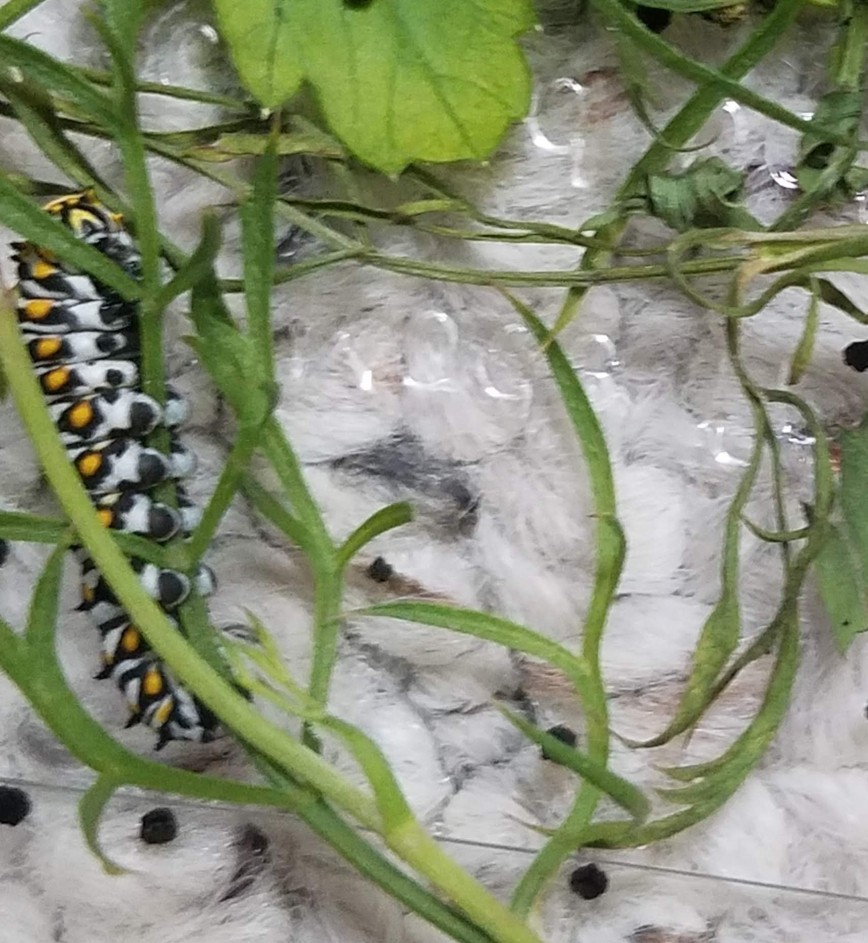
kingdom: Animalia
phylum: Arthropoda
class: Insecta
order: Lepidoptera
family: Papilionidae
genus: Papilio
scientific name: Papilio polyxenes
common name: Black swallowtail
